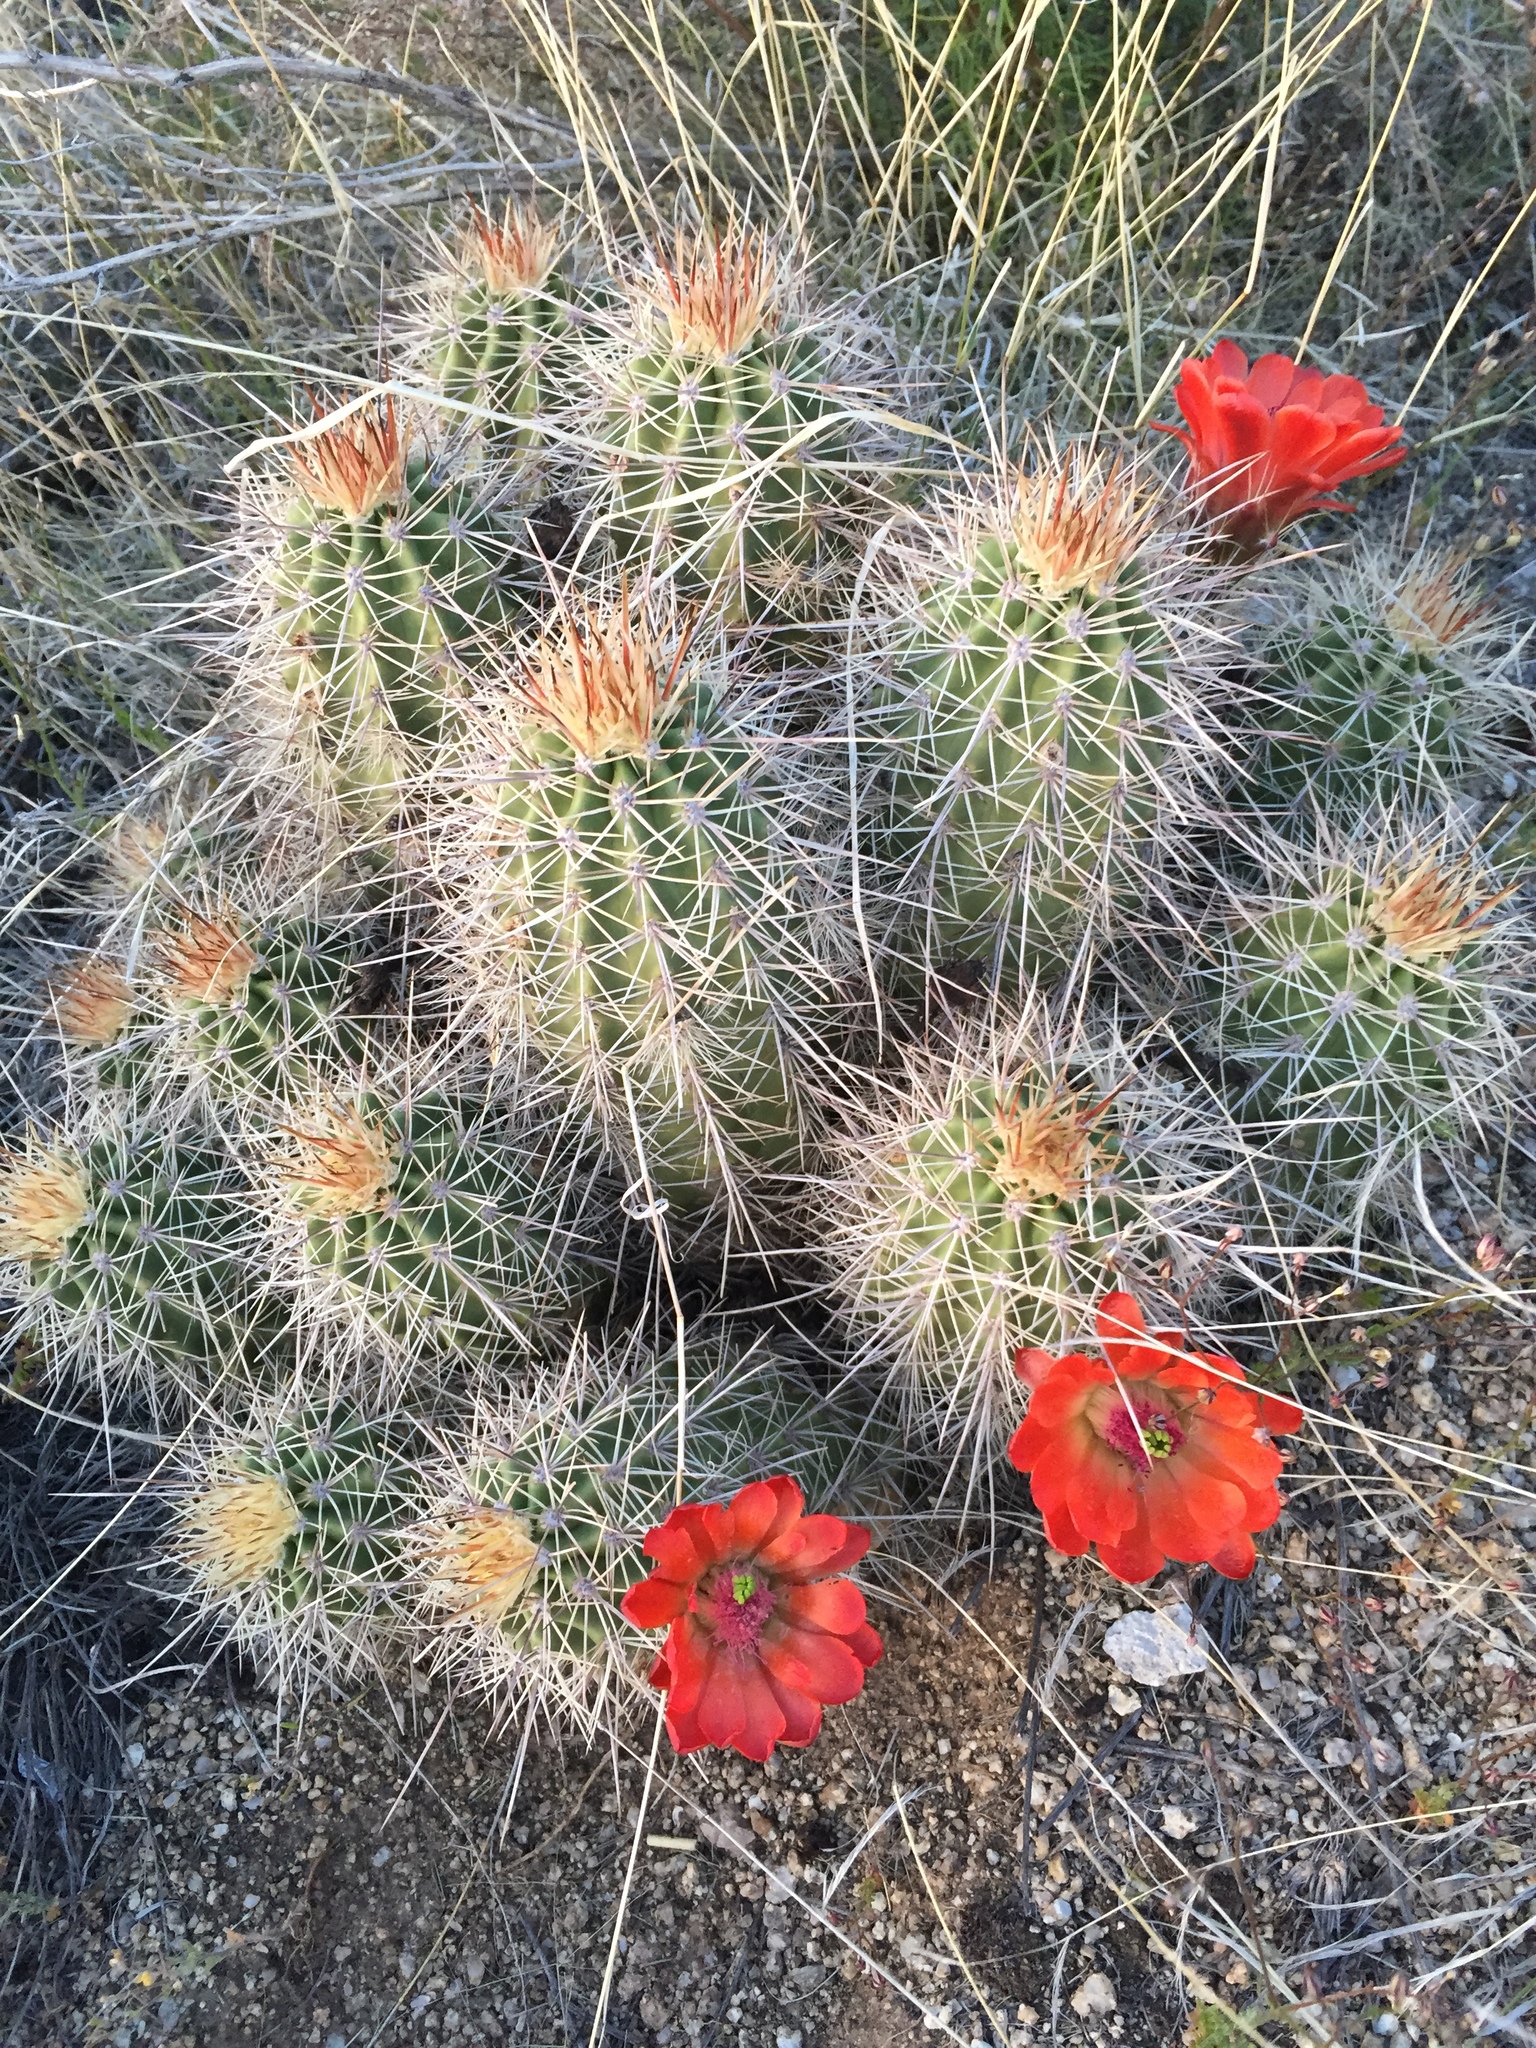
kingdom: Plantae
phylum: Tracheophyta
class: Magnoliopsida
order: Caryophyllales
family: Cactaceae
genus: Echinocereus
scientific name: Echinocereus coccineus
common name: Scarlet hedgehog cactus
